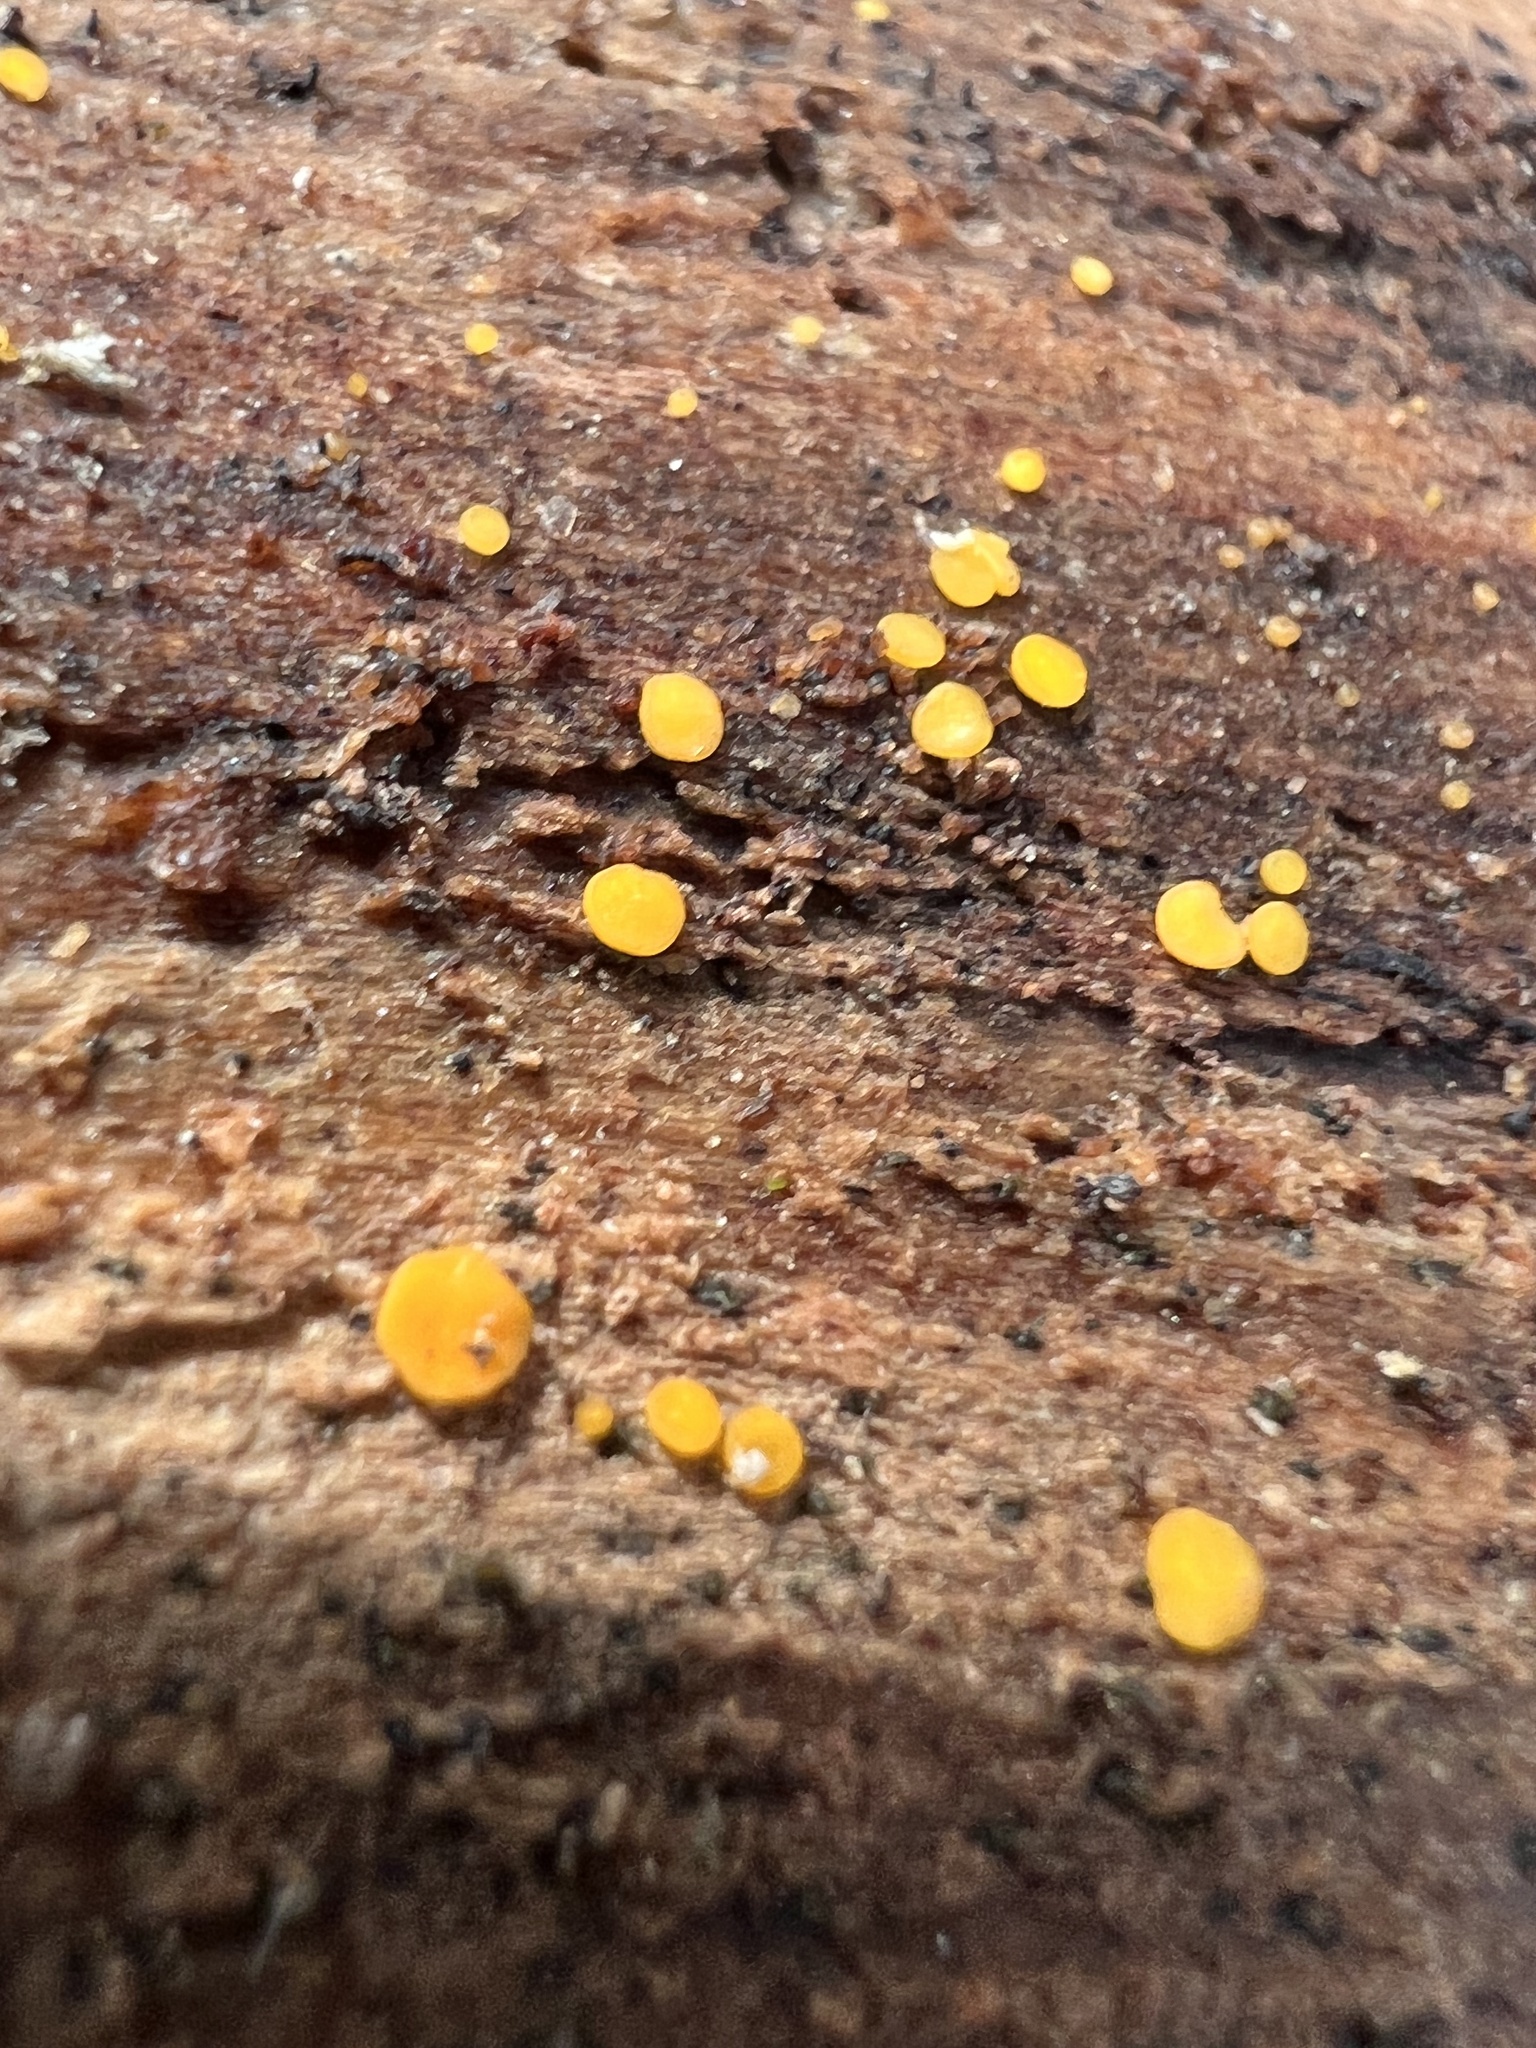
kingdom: Fungi
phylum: Ascomycota
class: Leotiomycetes
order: Helotiales
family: Pezizellaceae
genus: Calycina
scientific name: Calycina citrina
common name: Yellow fairy cups
